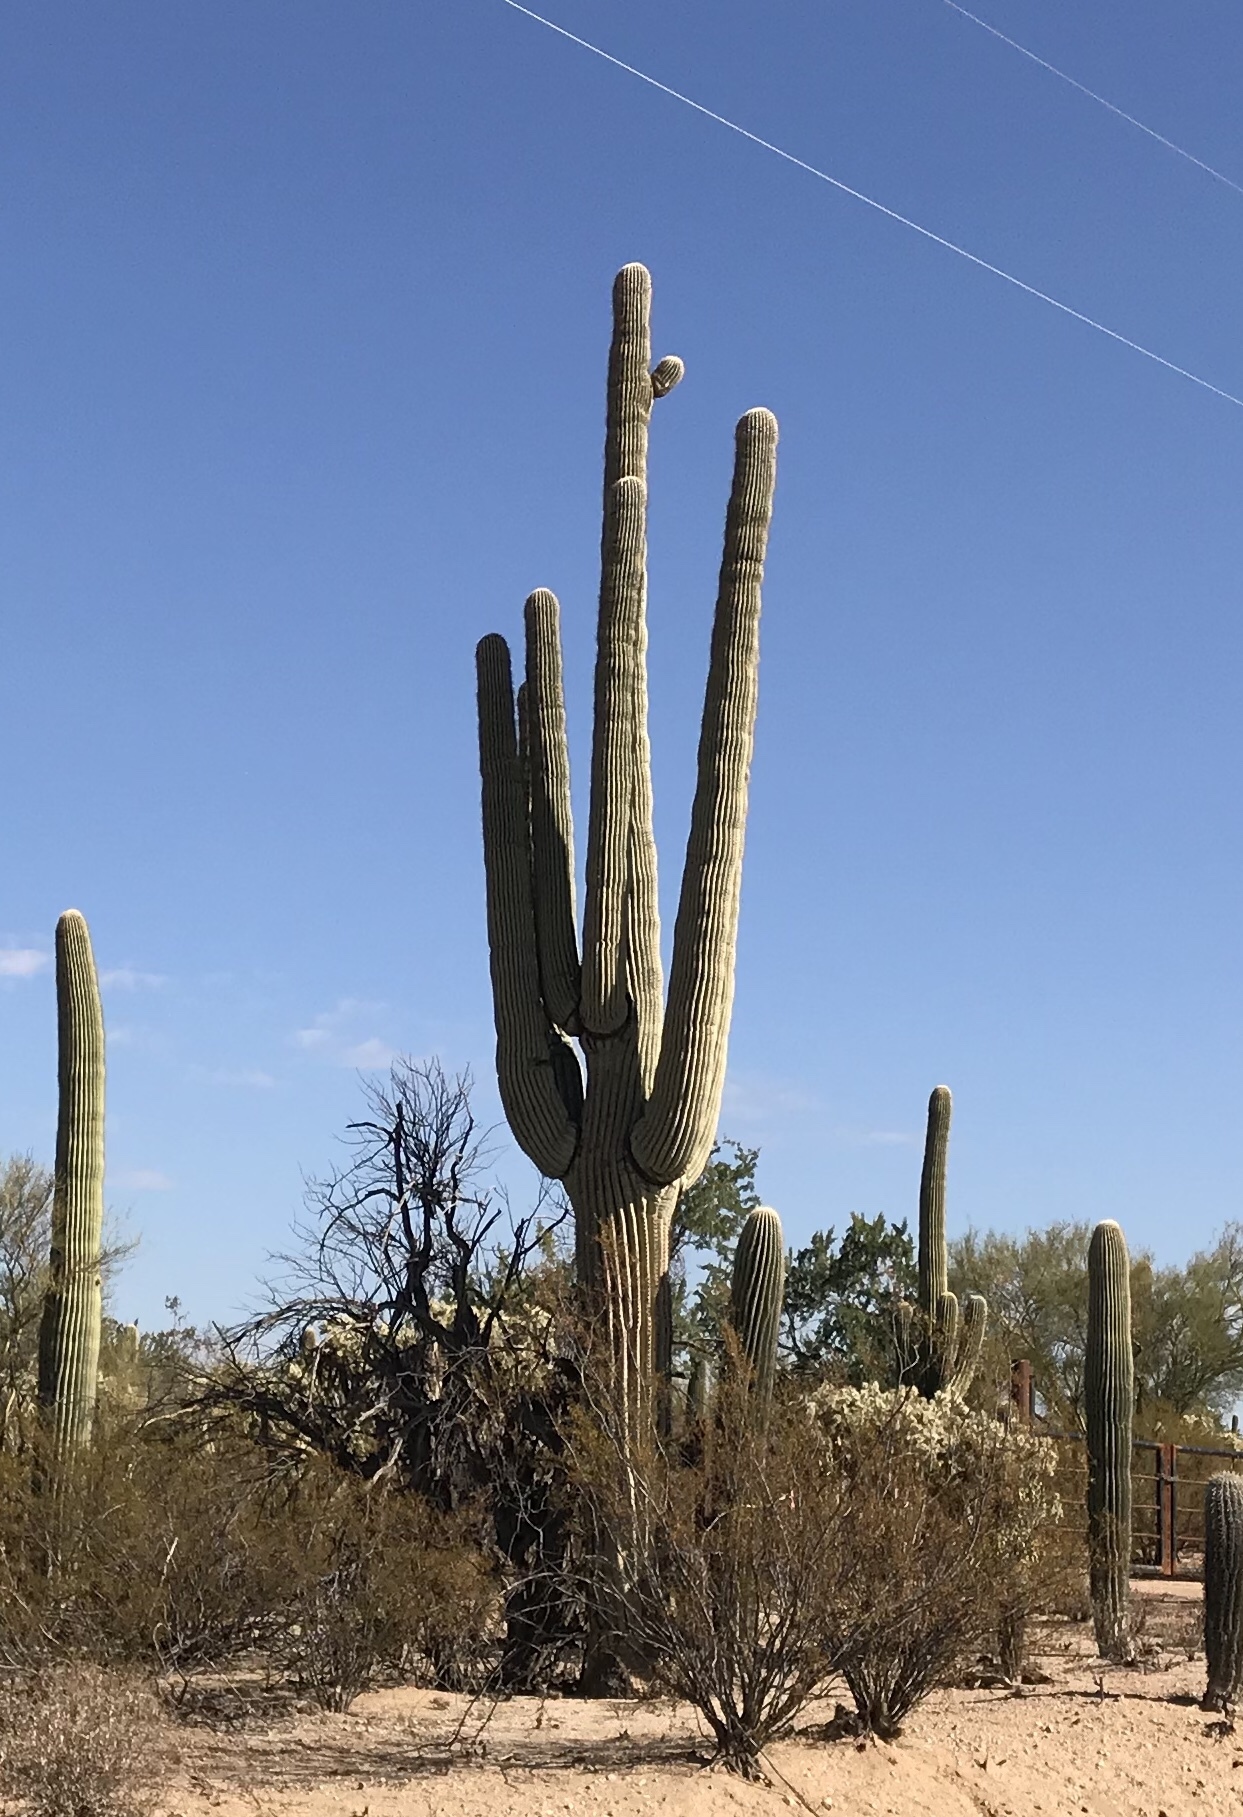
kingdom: Plantae
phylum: Tracheophyta
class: Magnoliopsida
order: Caryophyllales
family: Cactaceae
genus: Carnegiea
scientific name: Carnegiea gigantea
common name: Saguaro
